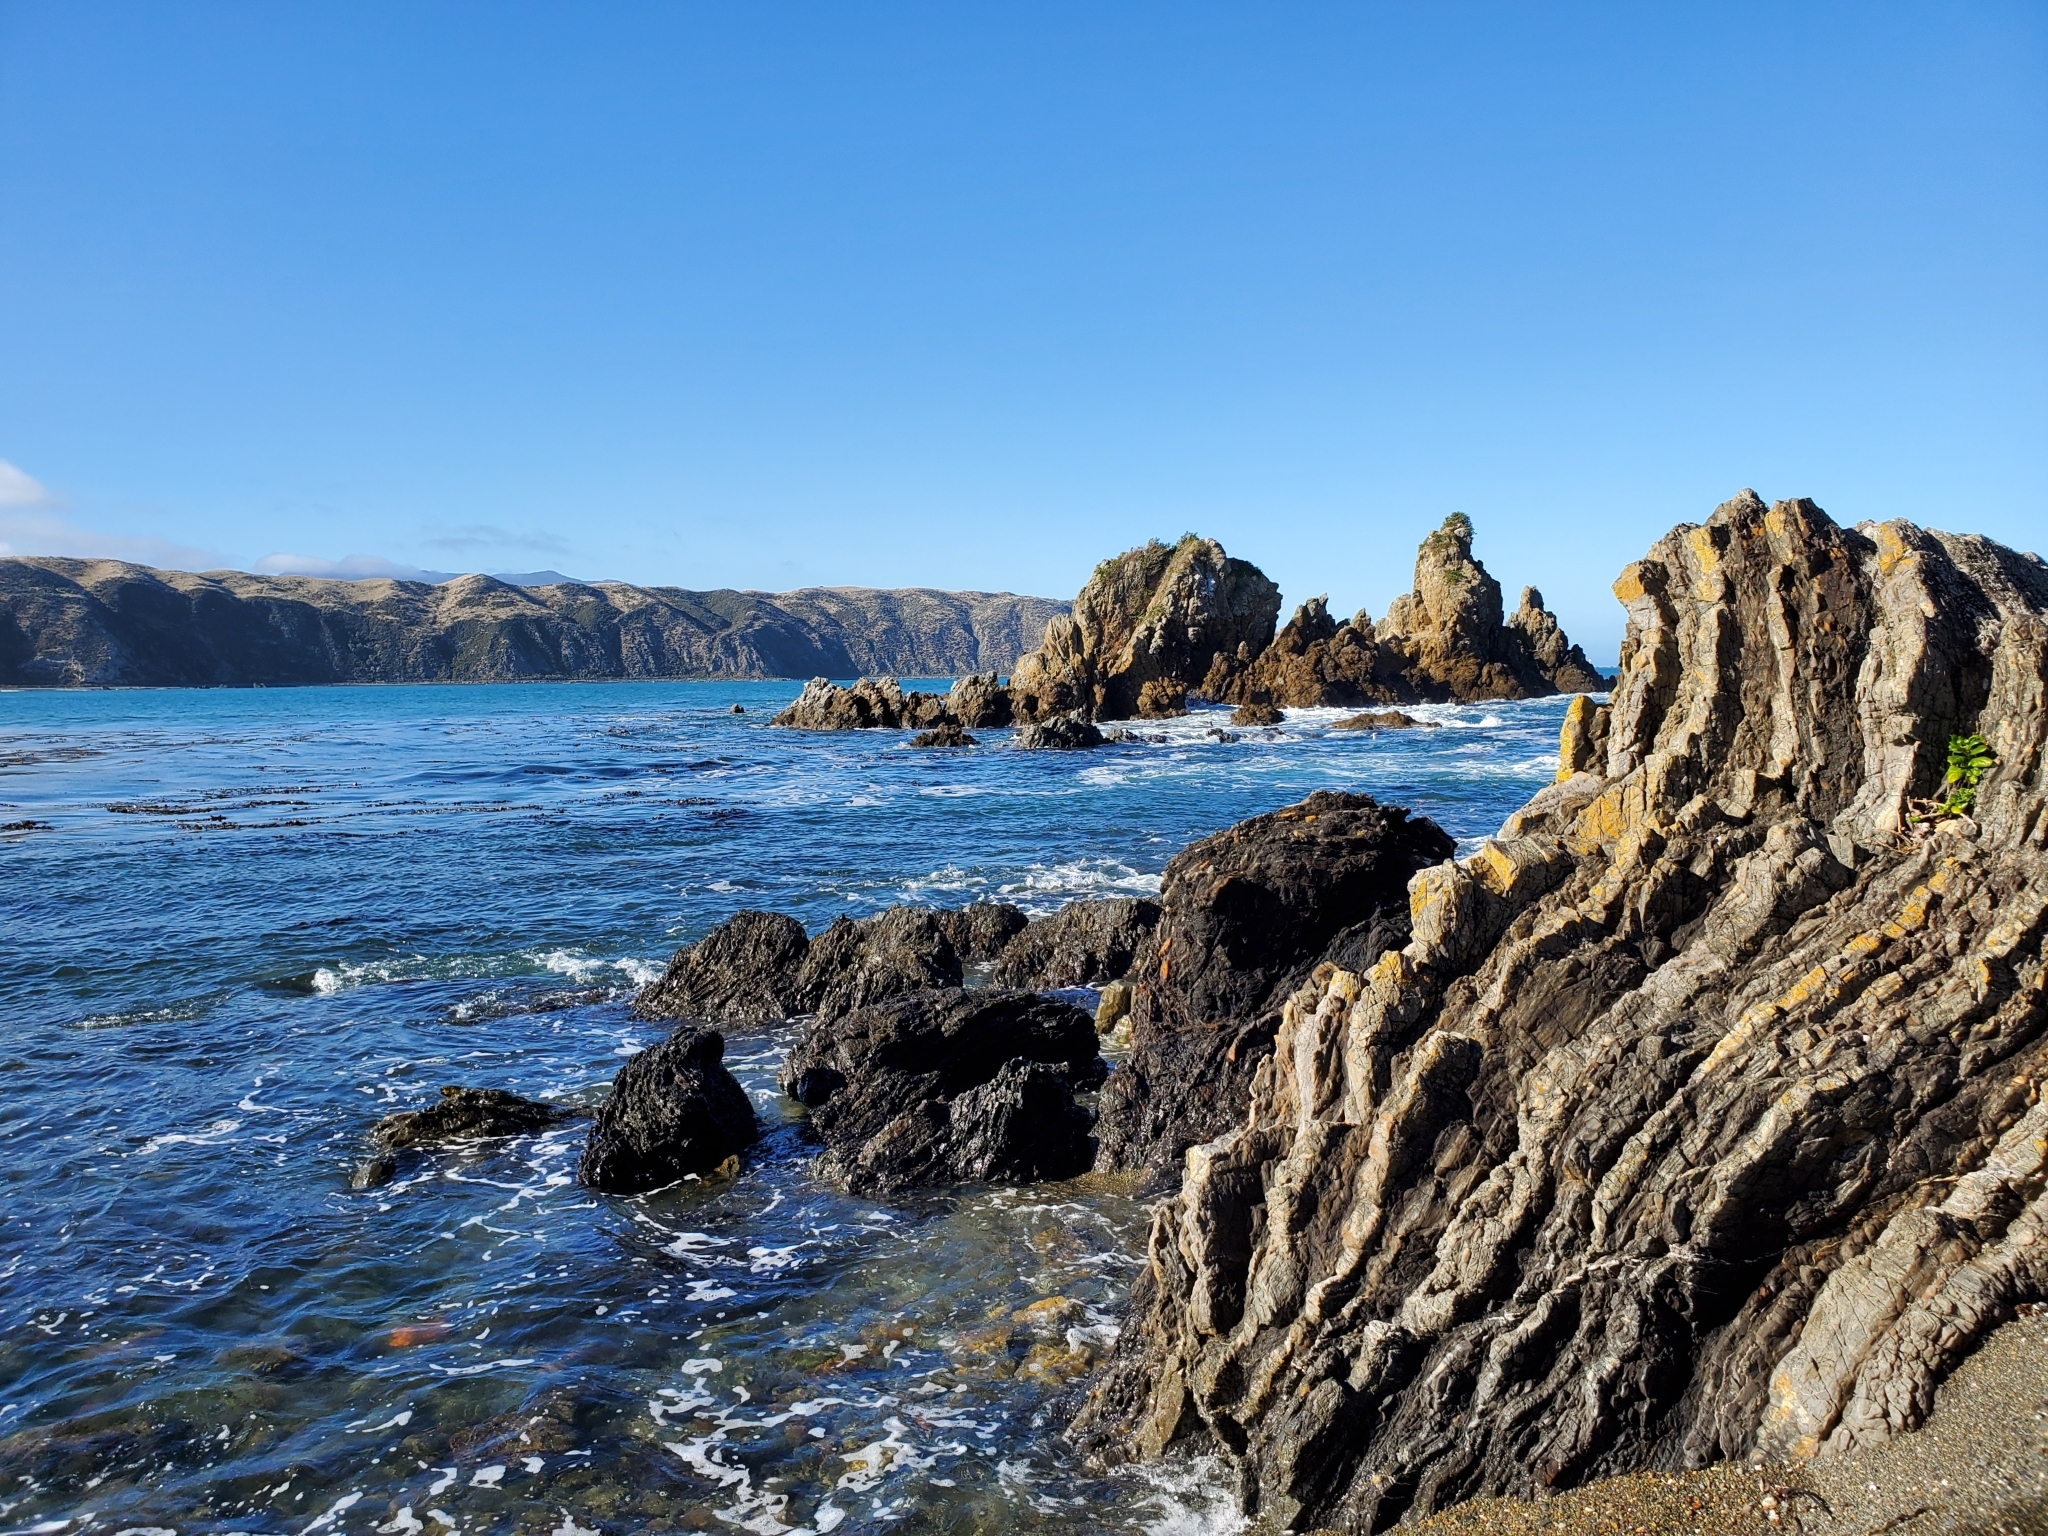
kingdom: Animalia
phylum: Chordata
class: Mammalia
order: Carnivora
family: Otariidae
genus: Arctocephalus
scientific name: Arctocephalus forsteri
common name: New zealand fur seal
